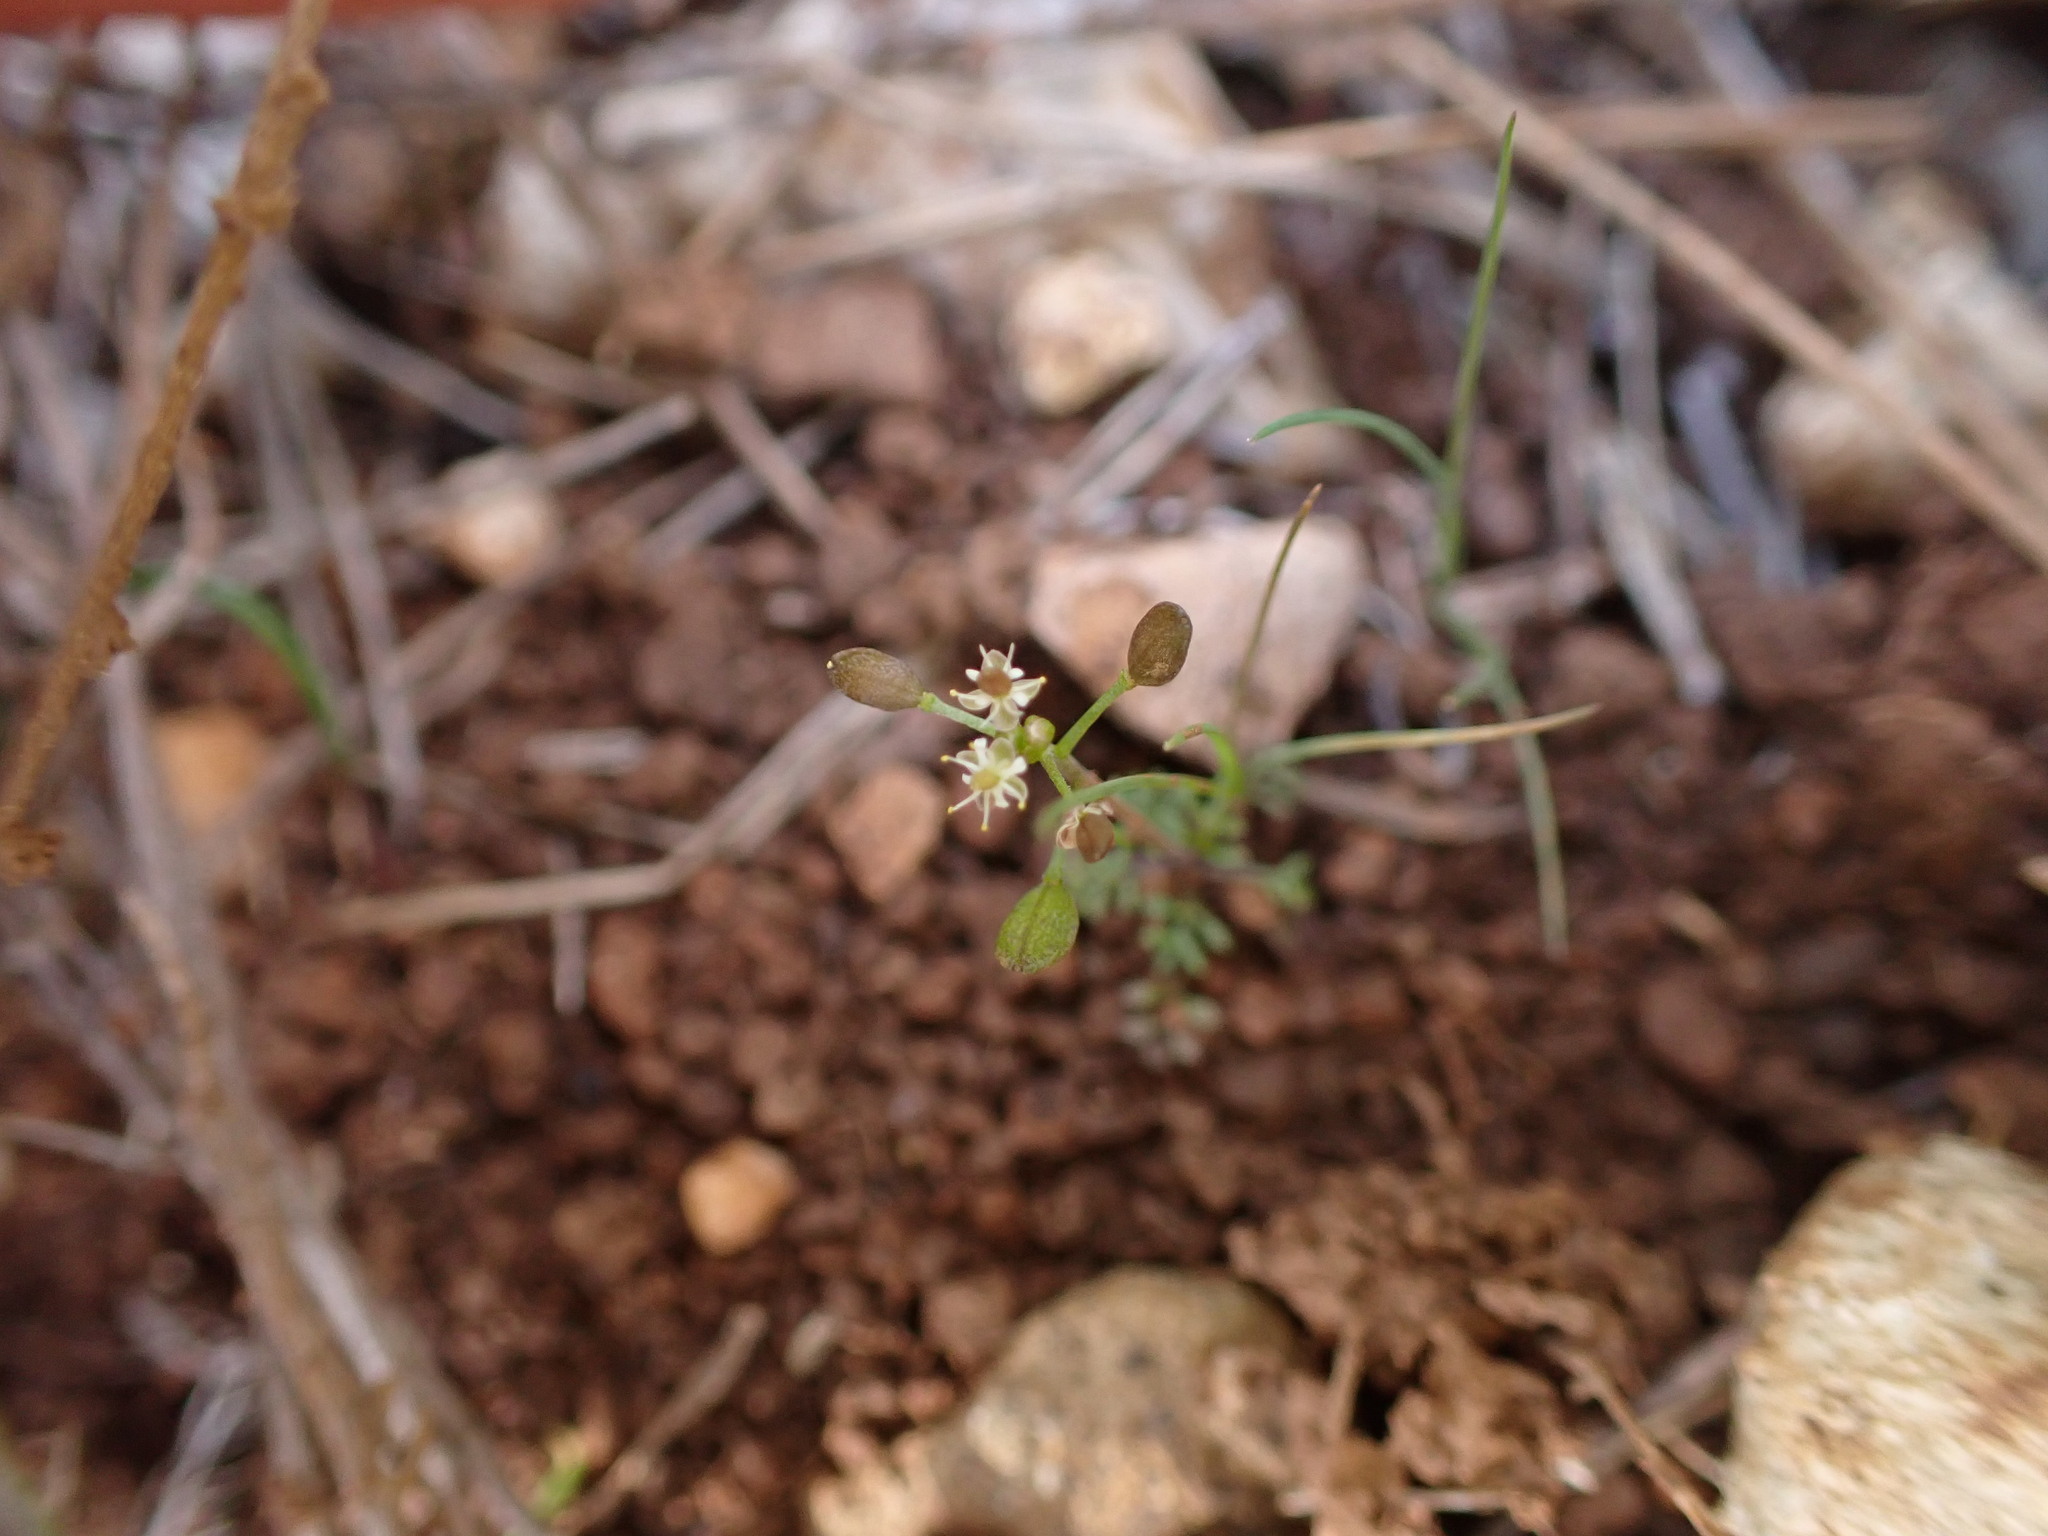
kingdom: Plantae
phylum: Tracheophyta
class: Magnoliopsida
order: Brassicales
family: Brassicaceae
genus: Hornungia
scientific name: Hornungia petraea
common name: Hutchinsia
